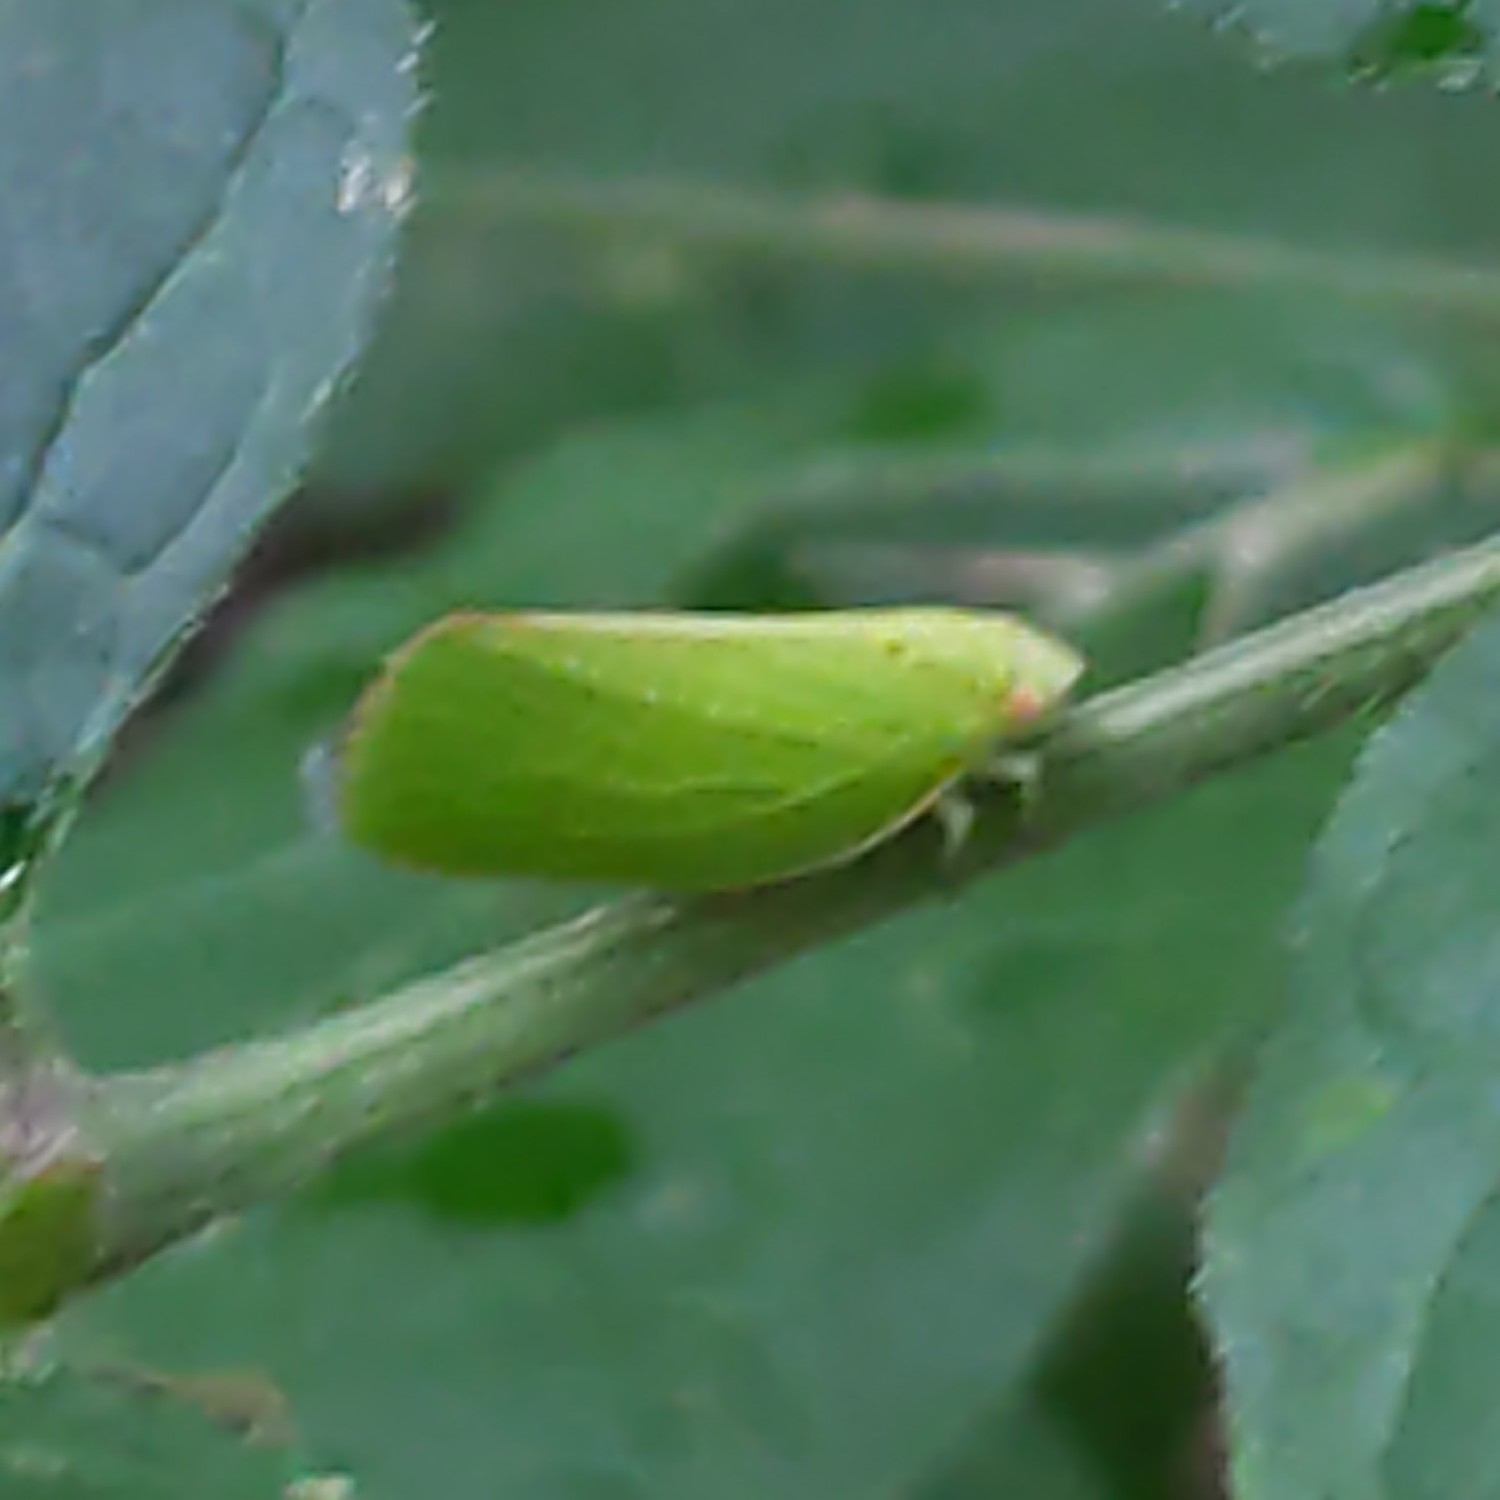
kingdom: Animalia
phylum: Arthropoda
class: Insecta
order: Hemiptera
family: Acanaloniidae
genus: Acanalonia
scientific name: Acanalonia conica
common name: Green cone-headed planthopper
